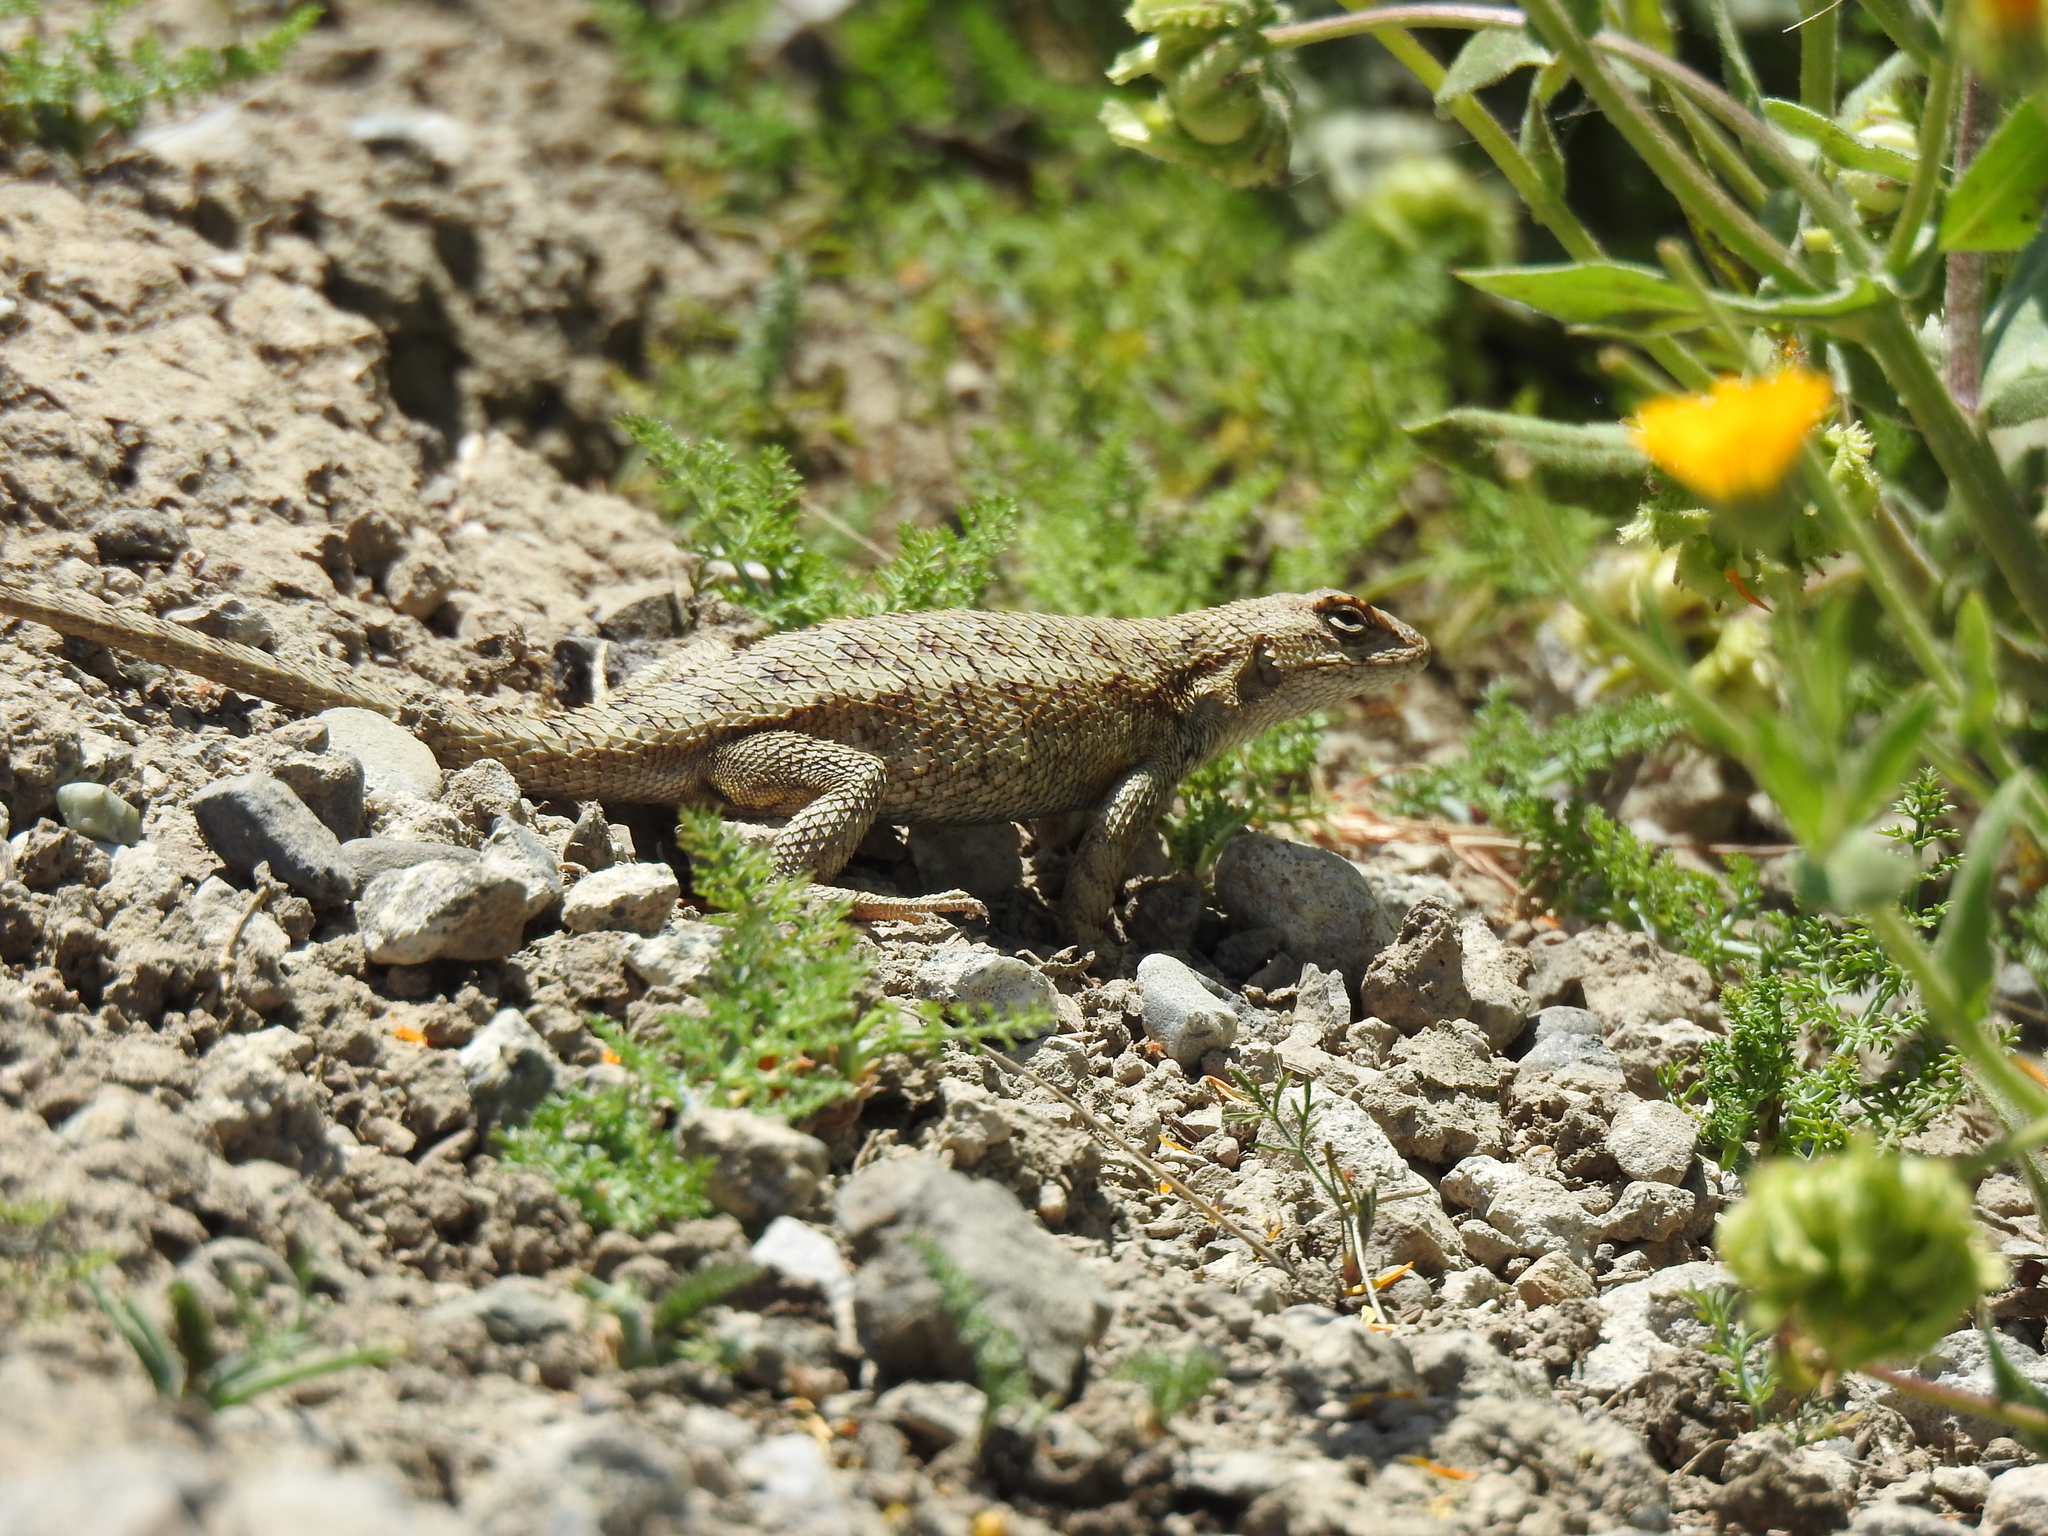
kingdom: Animalia
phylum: Chordata
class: Squamata
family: Phrynosomatidae
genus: Sceloporus
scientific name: Sceloporus occidentalis
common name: Western fence lizard
